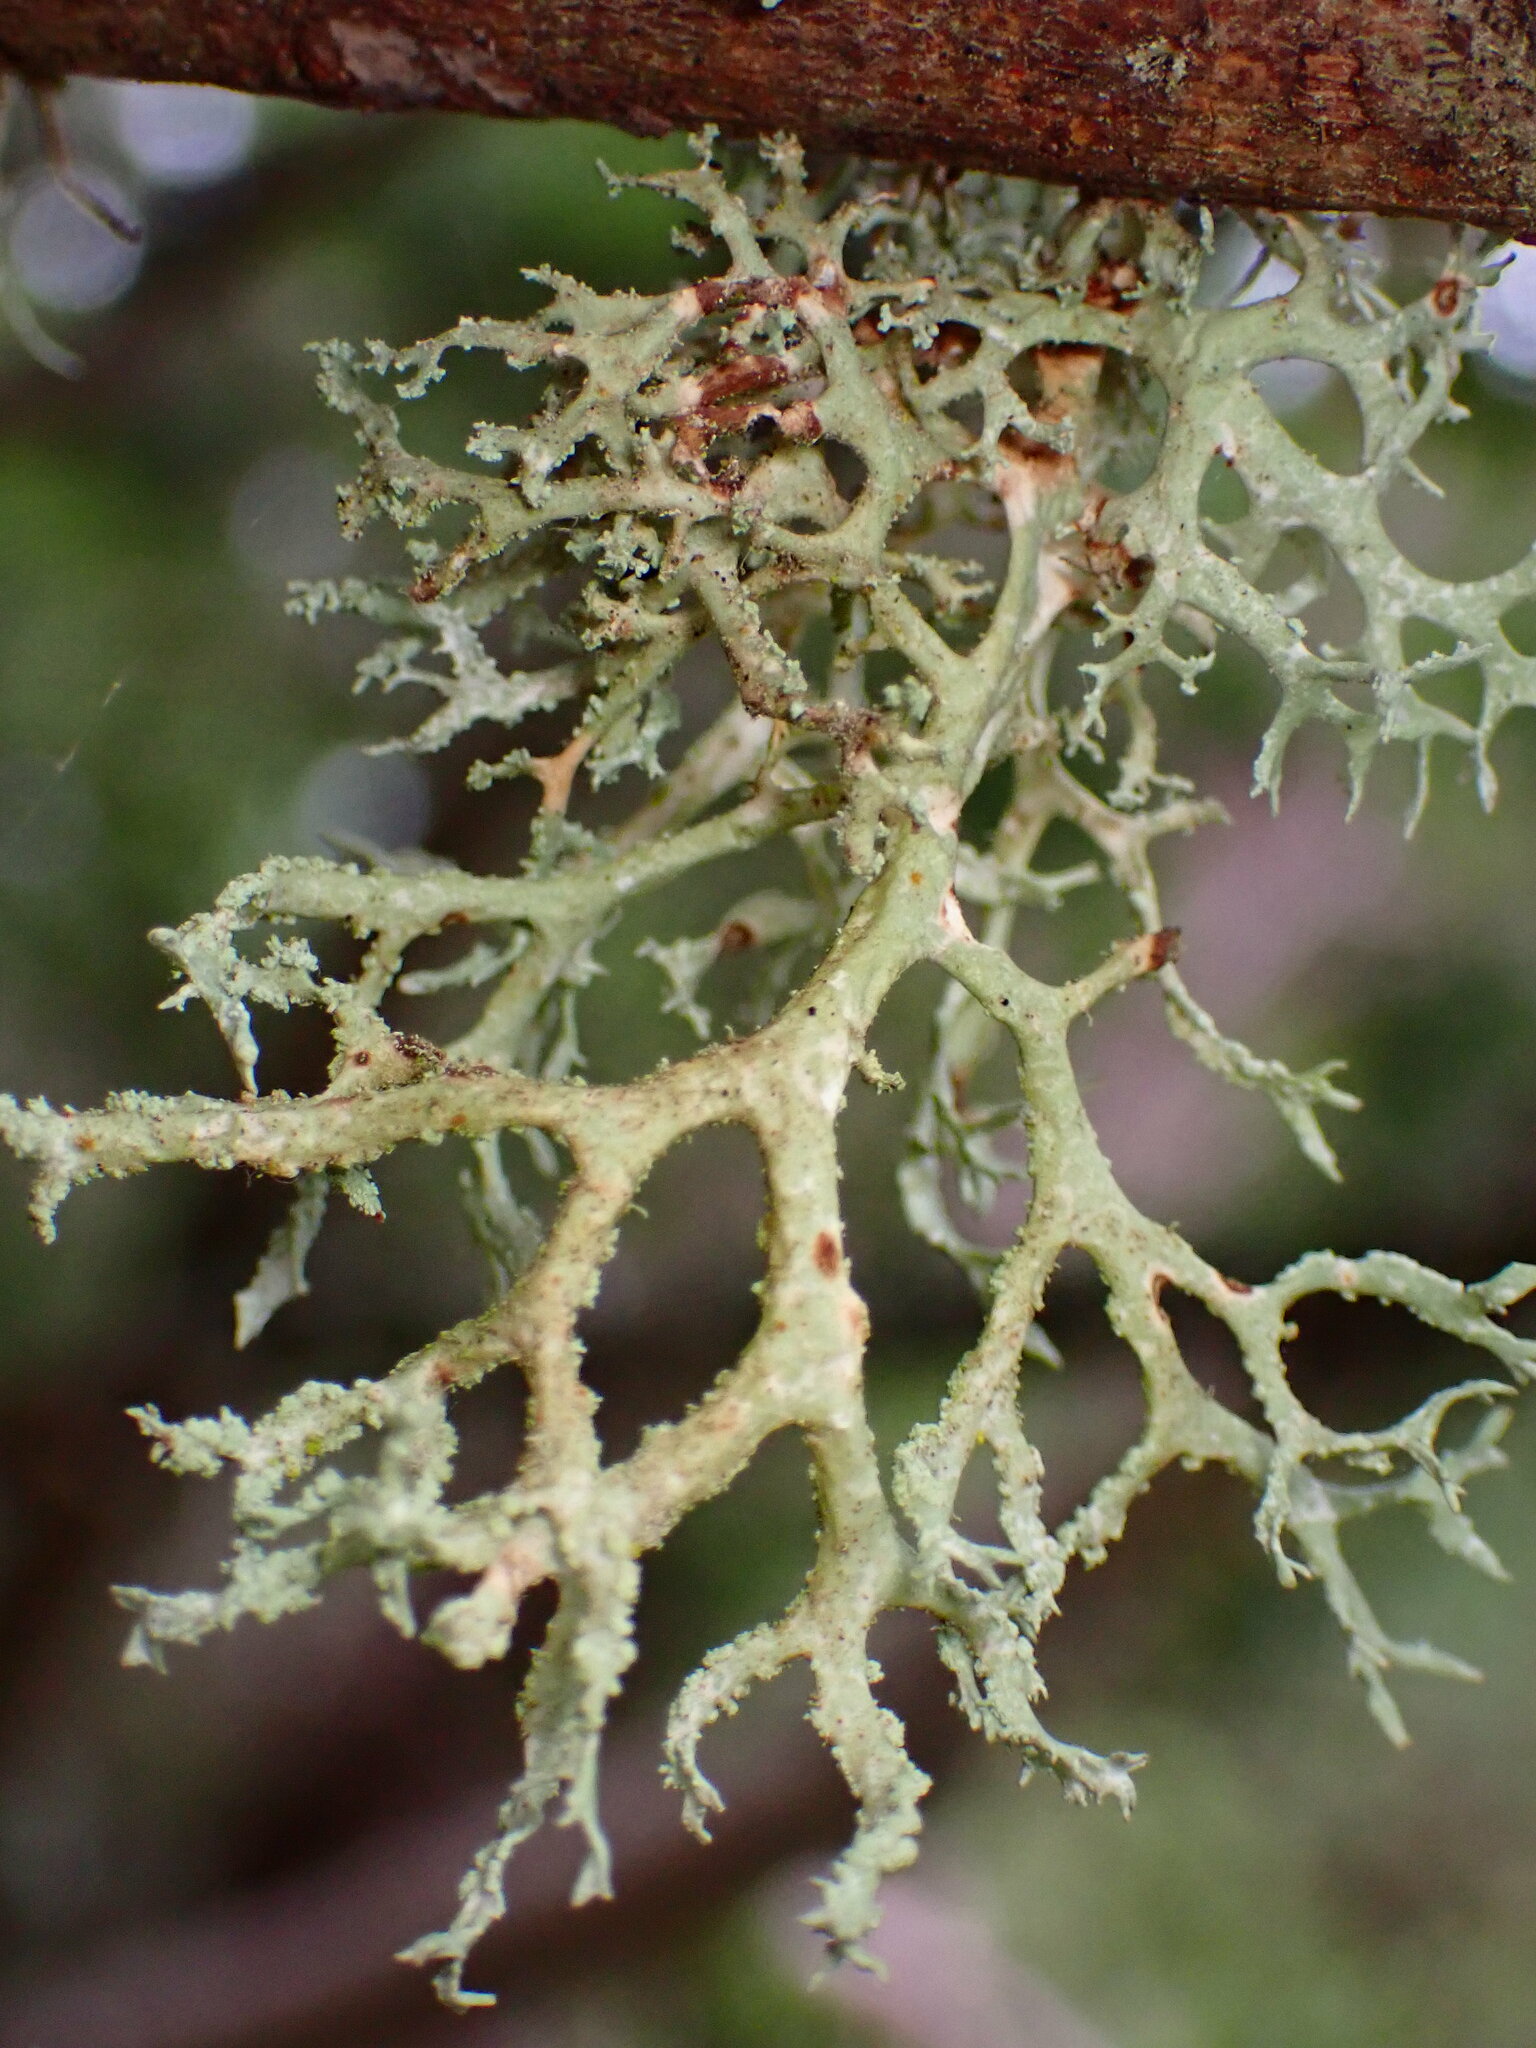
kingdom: Fungi
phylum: Ascomycota
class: Lecanoromycetes
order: Lecanorales
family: Parmeliaceae
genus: Evernia
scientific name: Evernia prunastri
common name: Oak moss
